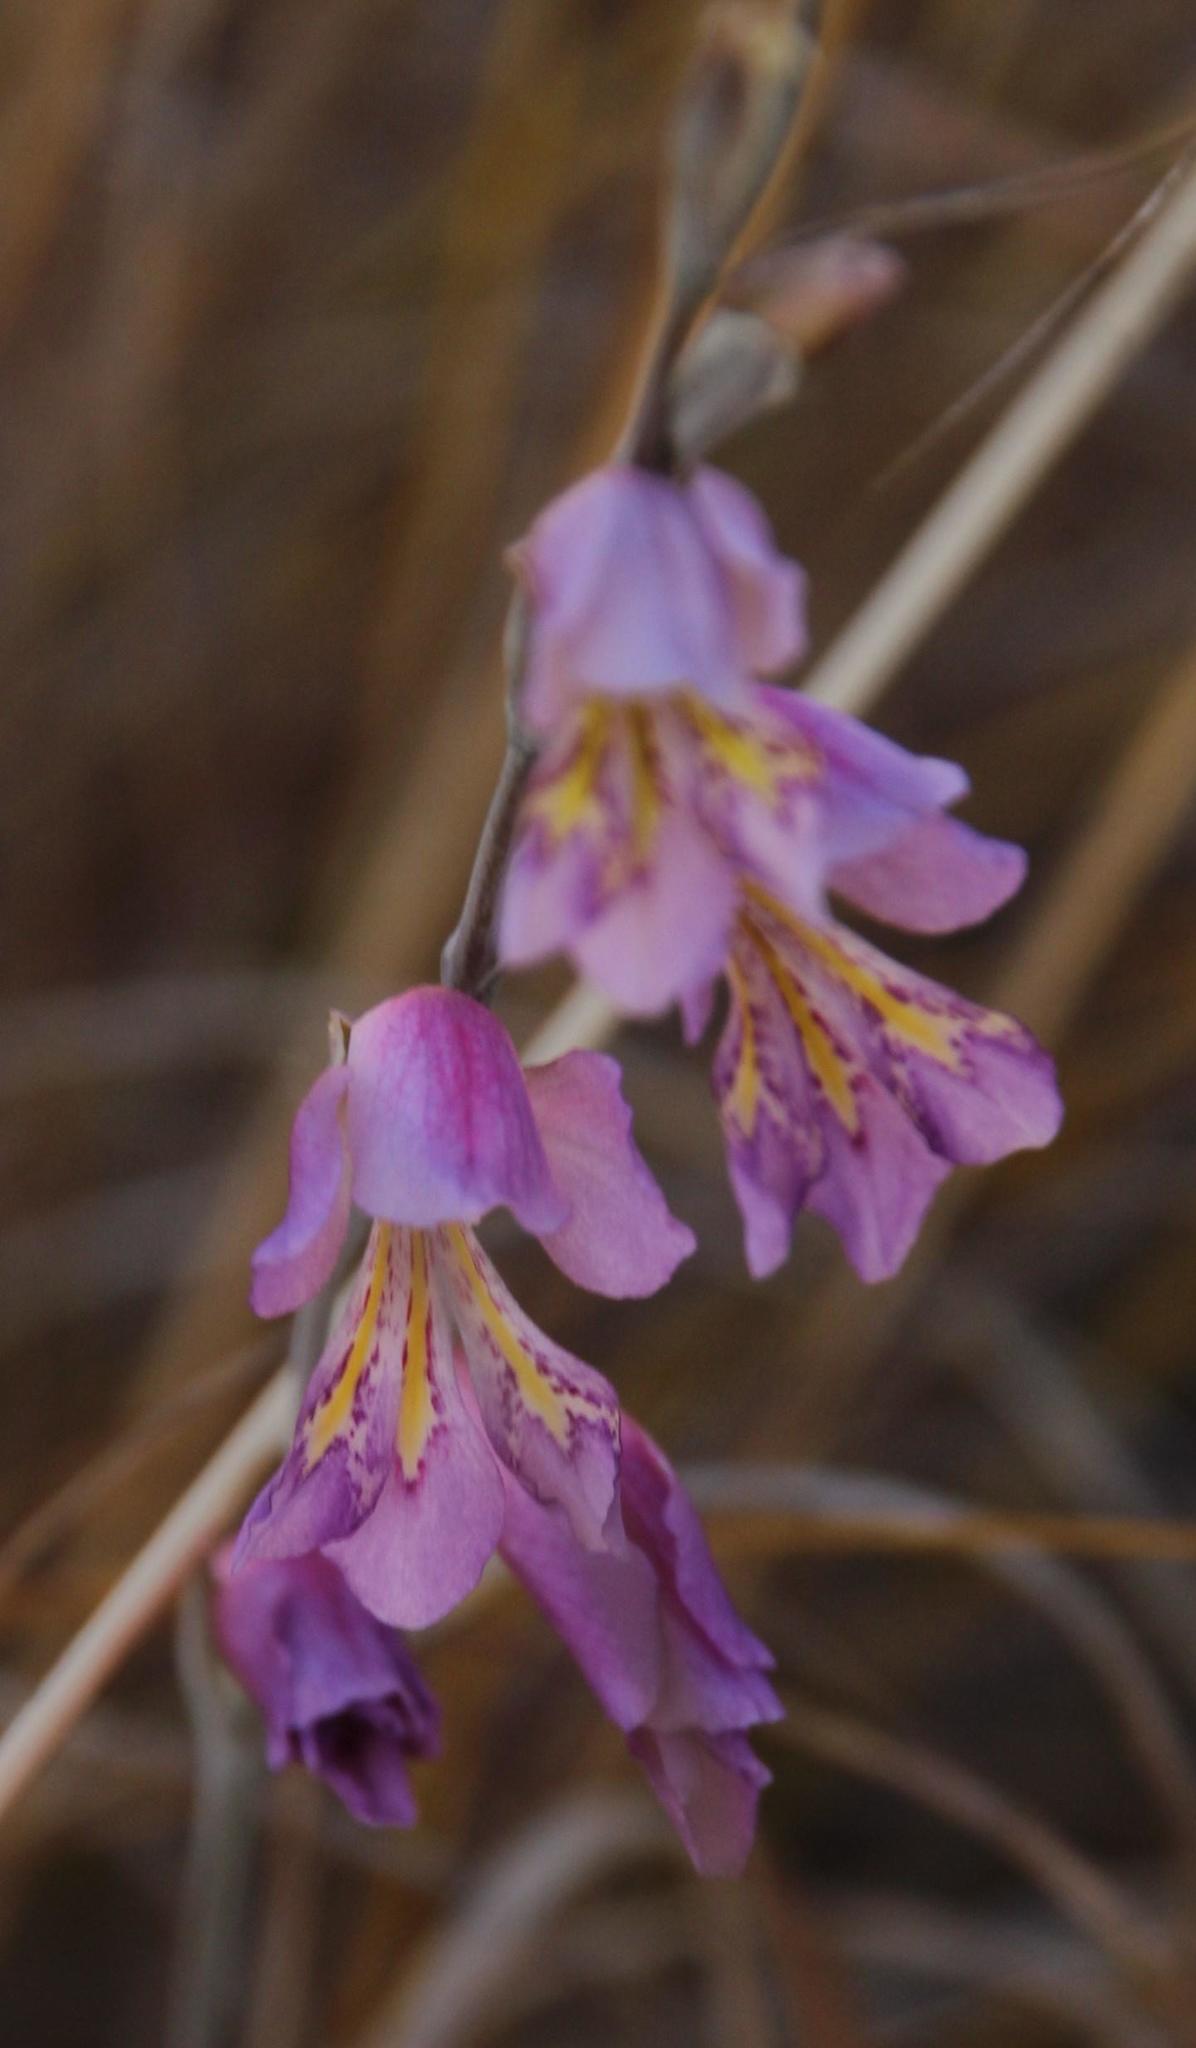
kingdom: Plantae
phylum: Tracheophyta
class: Liliopsida
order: Asparagales
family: Iridaceae
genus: Gladiolus
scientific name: Gladiolus brevifolius
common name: March pypie
